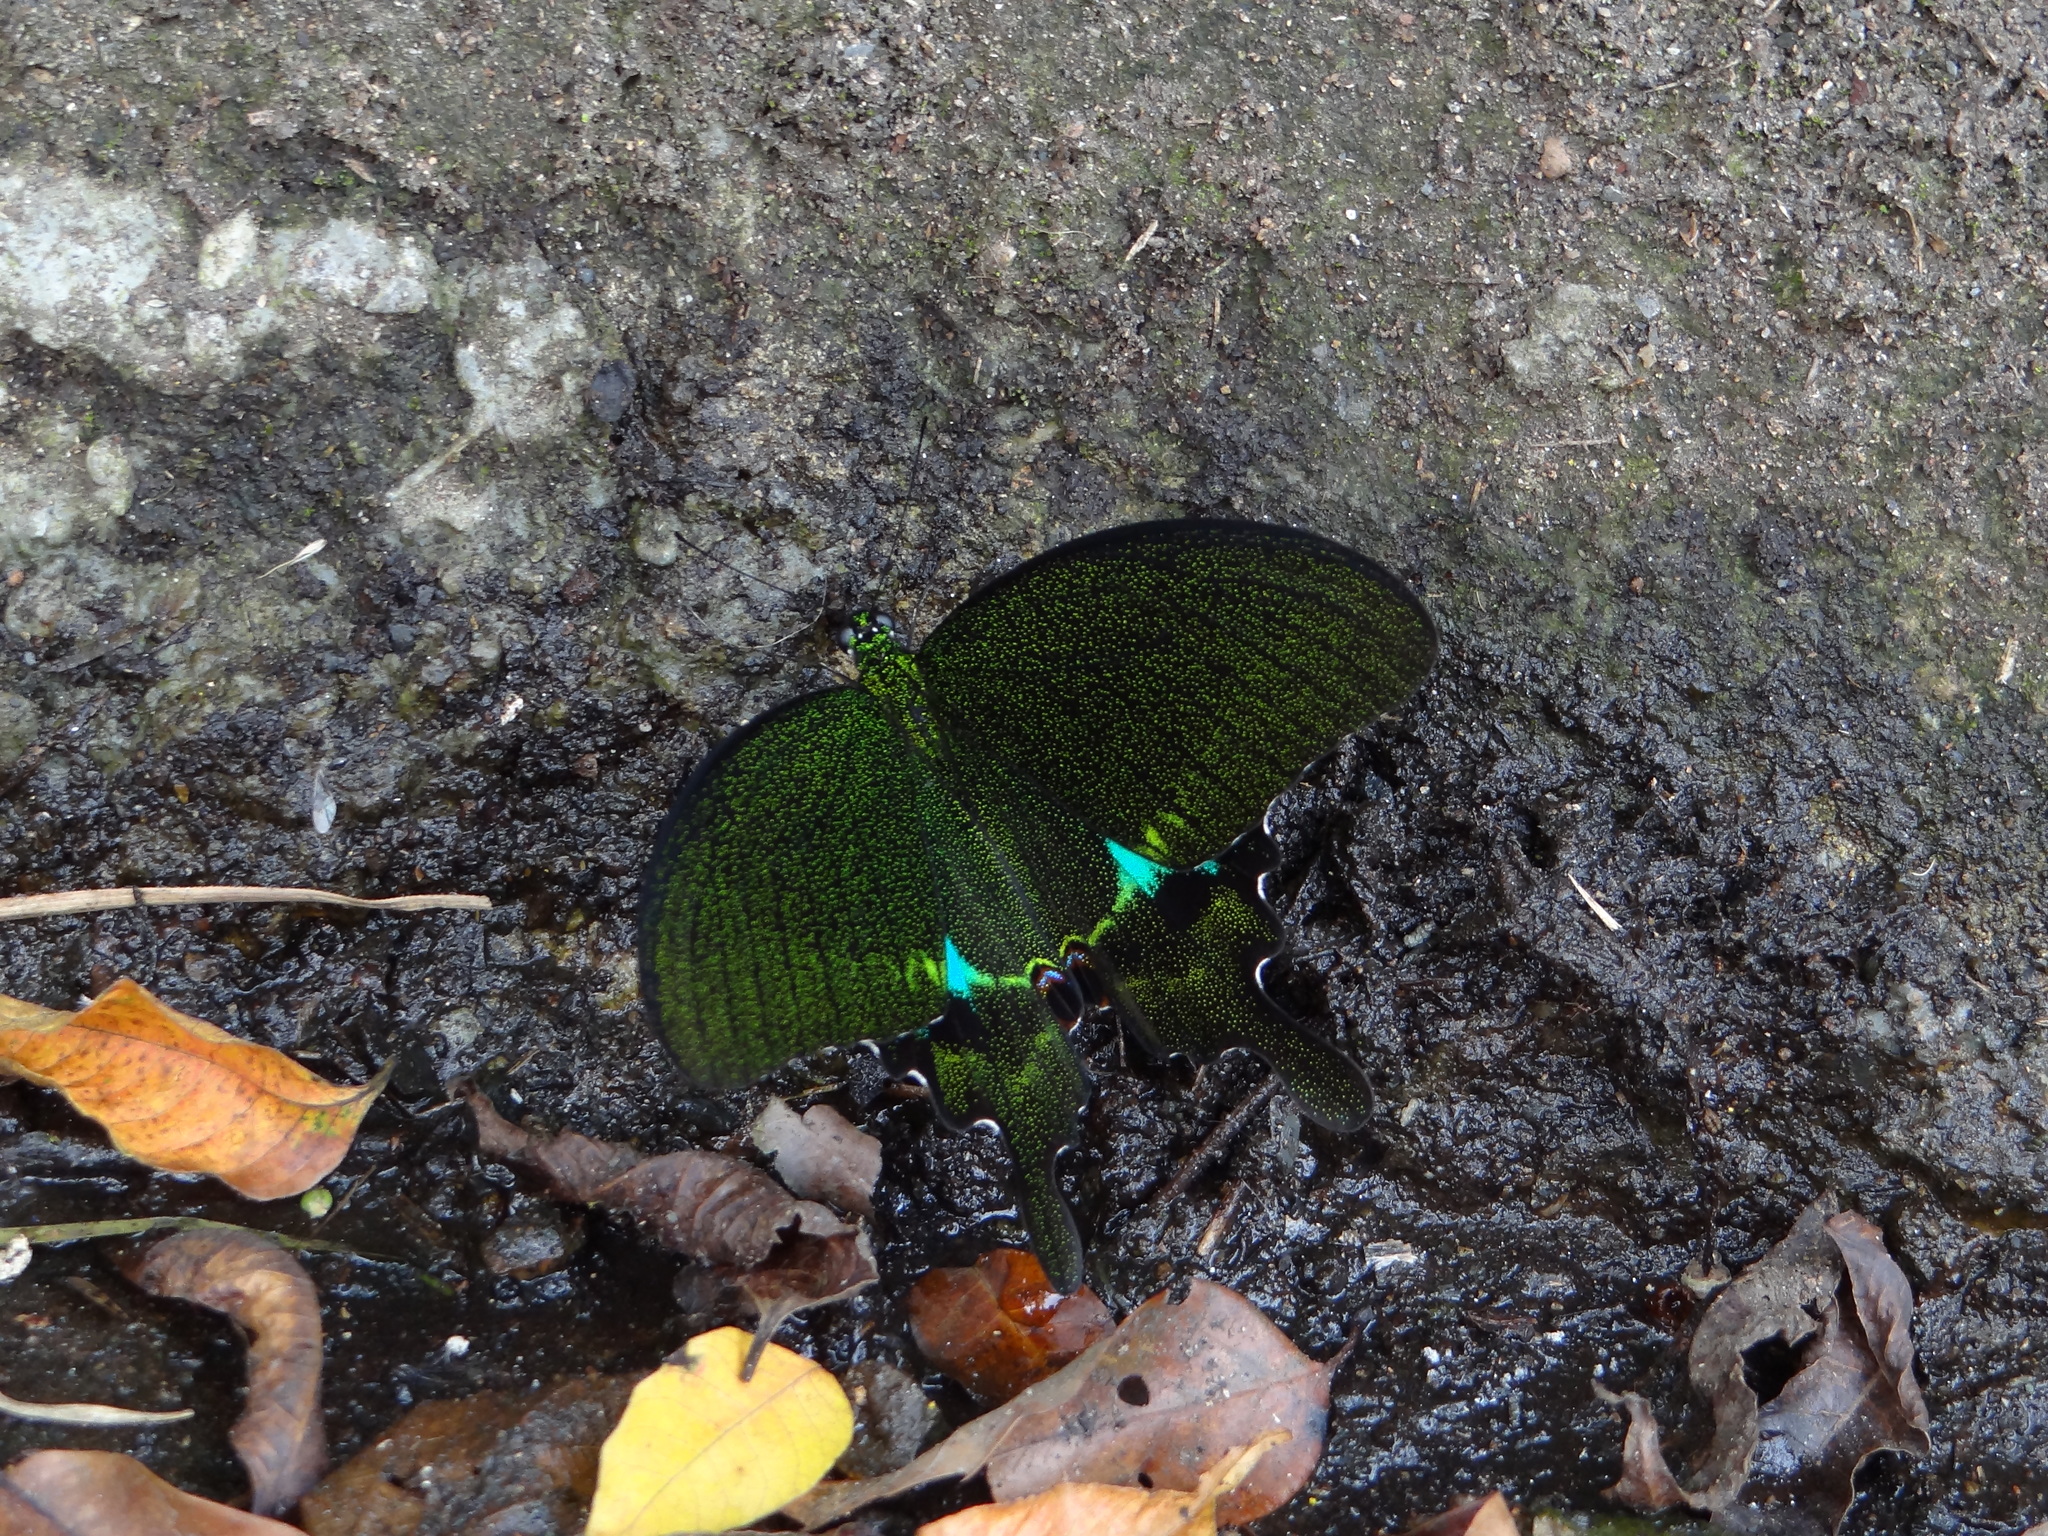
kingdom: Animalia
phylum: Arthropoda
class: Insecta
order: Lepidoptera
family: Papilionidae
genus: Papilio
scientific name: Papilio paris
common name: Paris peacock
